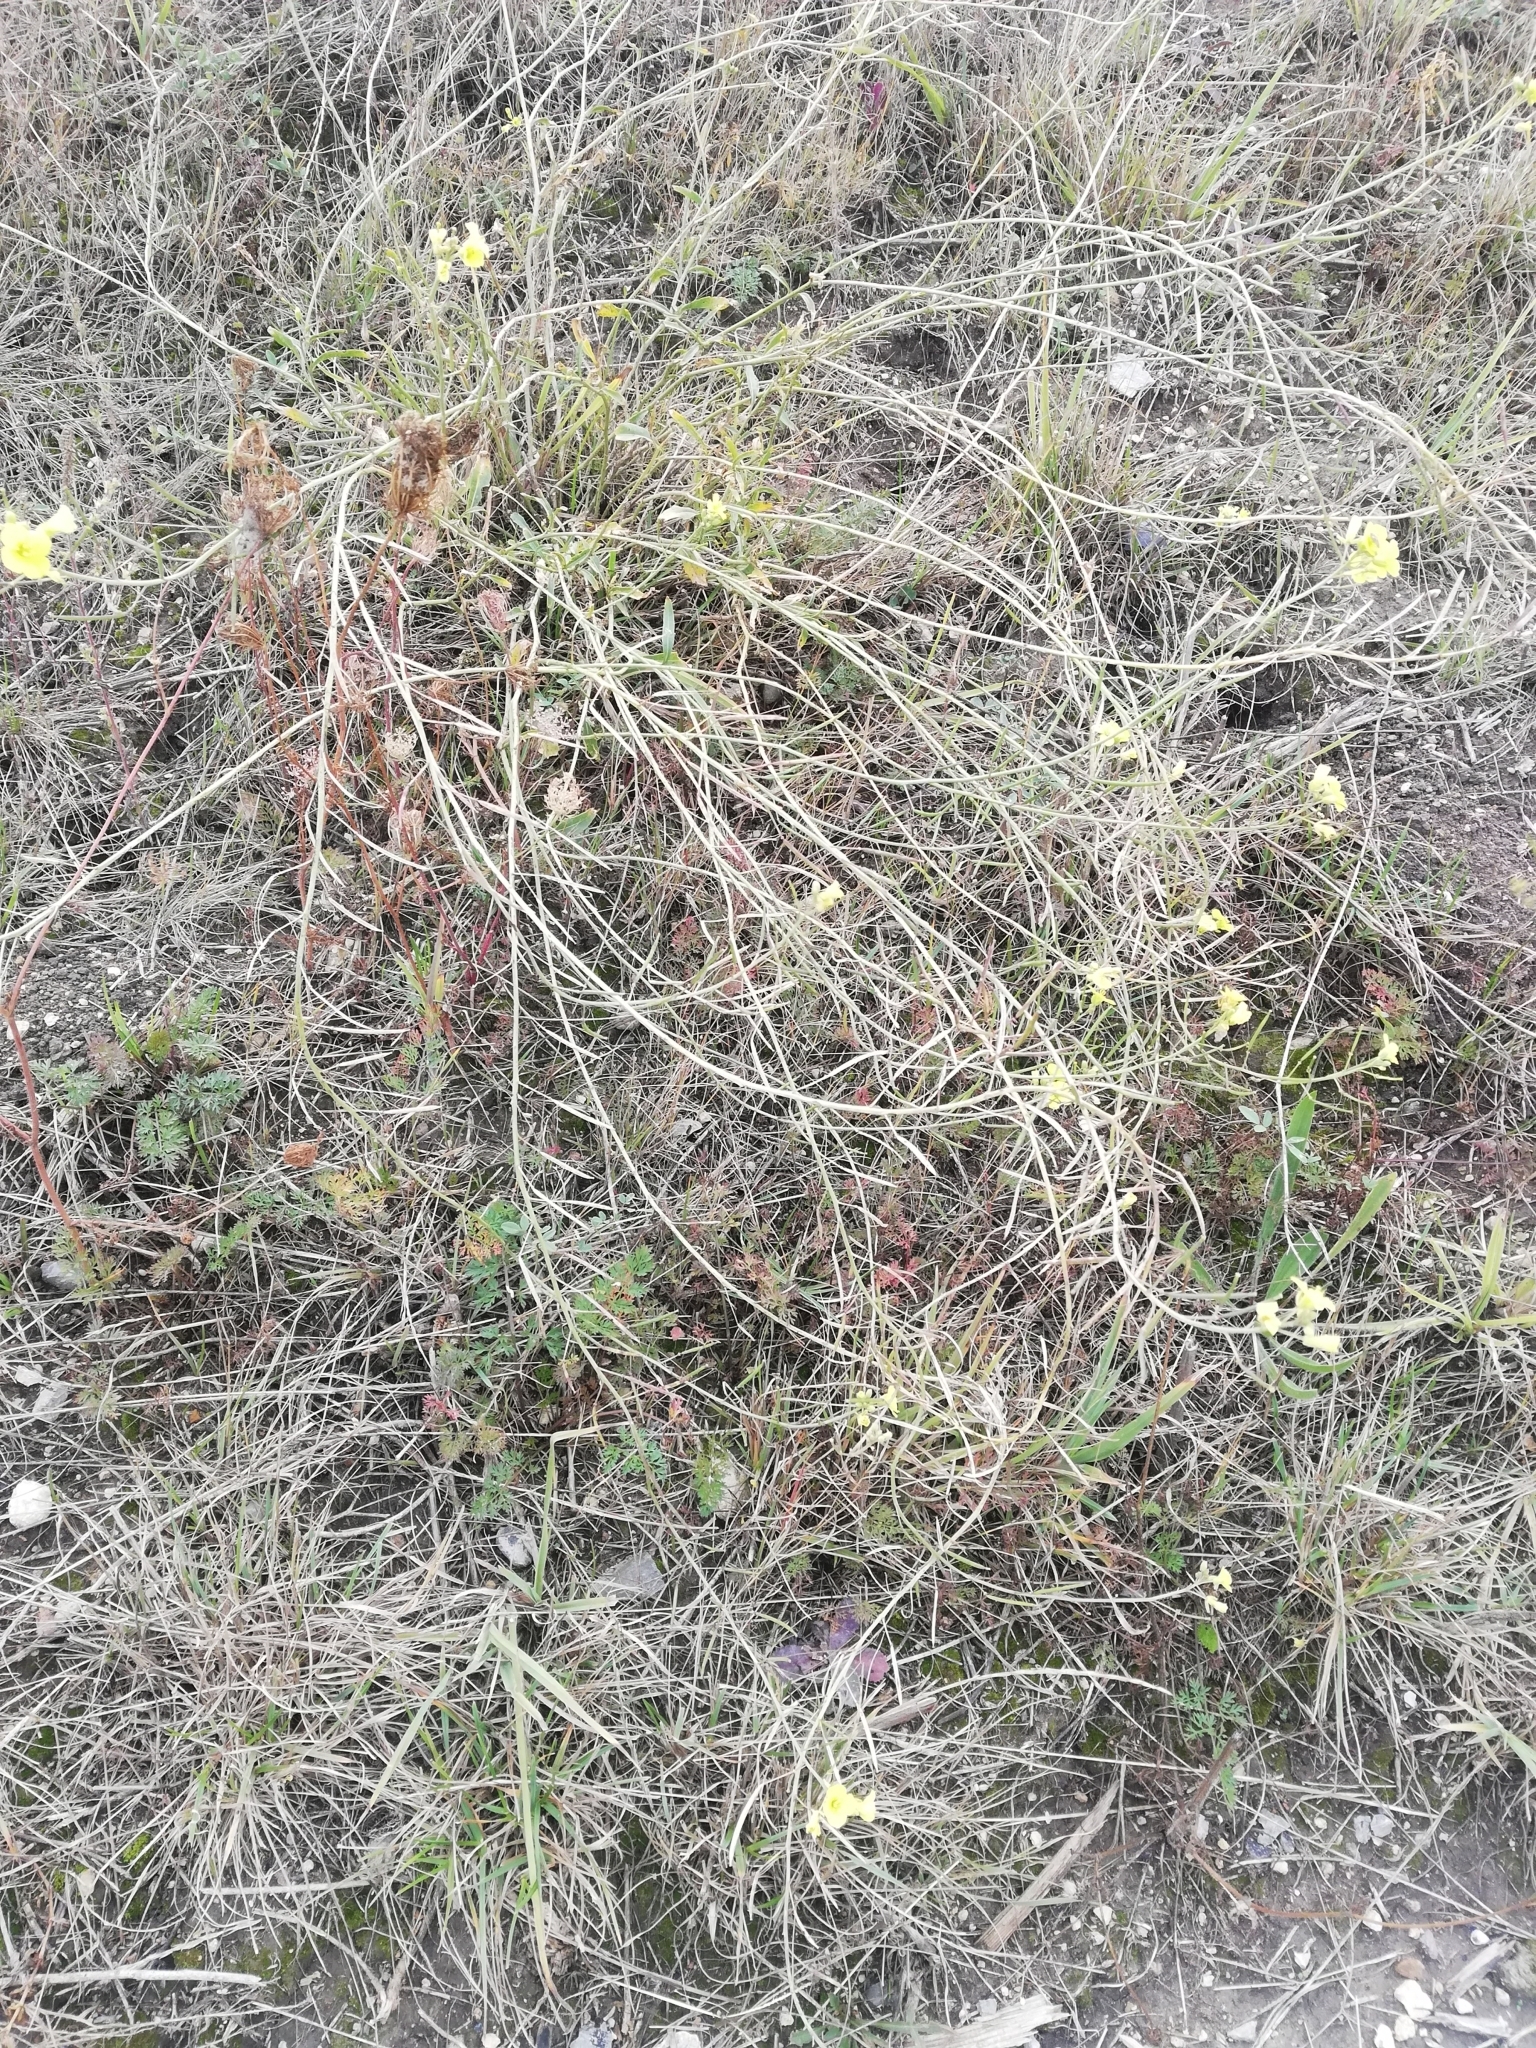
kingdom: Plantae
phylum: Tracheophyta
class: Magnoliopsida
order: Brassicales
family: Brassicaceae
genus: Diplotaxis
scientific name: Diplotaxis tenuifolia
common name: Perennial wall-rocket
